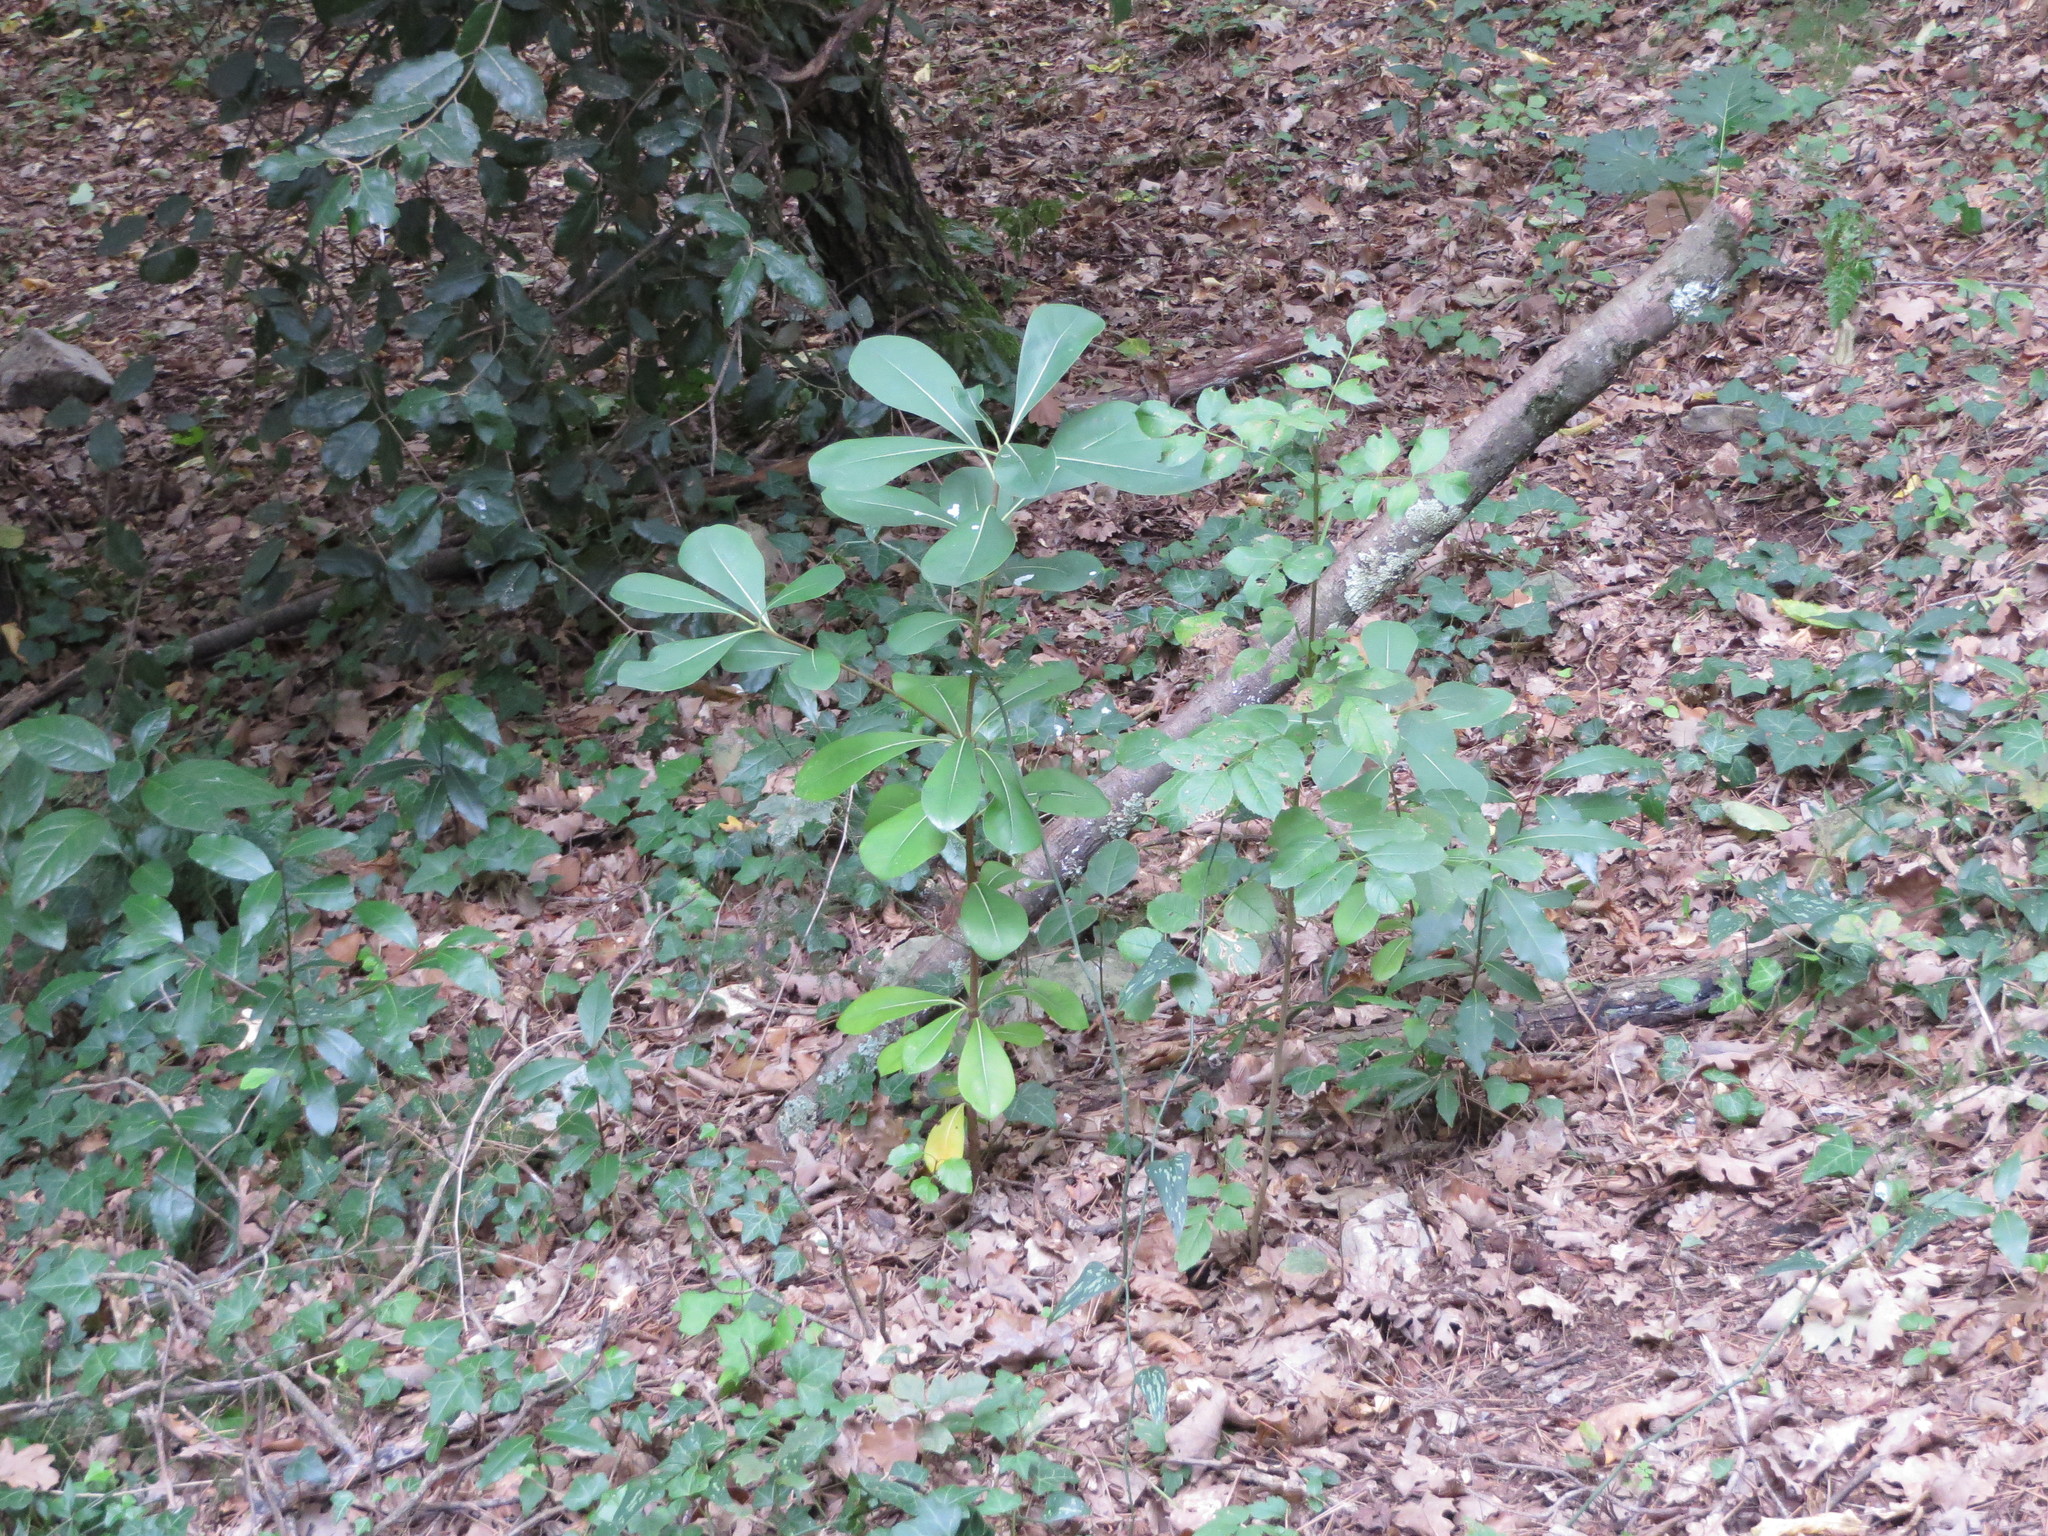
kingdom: Plantae
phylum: Tracheophyta
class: Magnoliopsida
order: Apiales
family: Pittosporaceae
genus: Pittosporum
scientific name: Pittosporum tobira
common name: Japanese cheesewood
